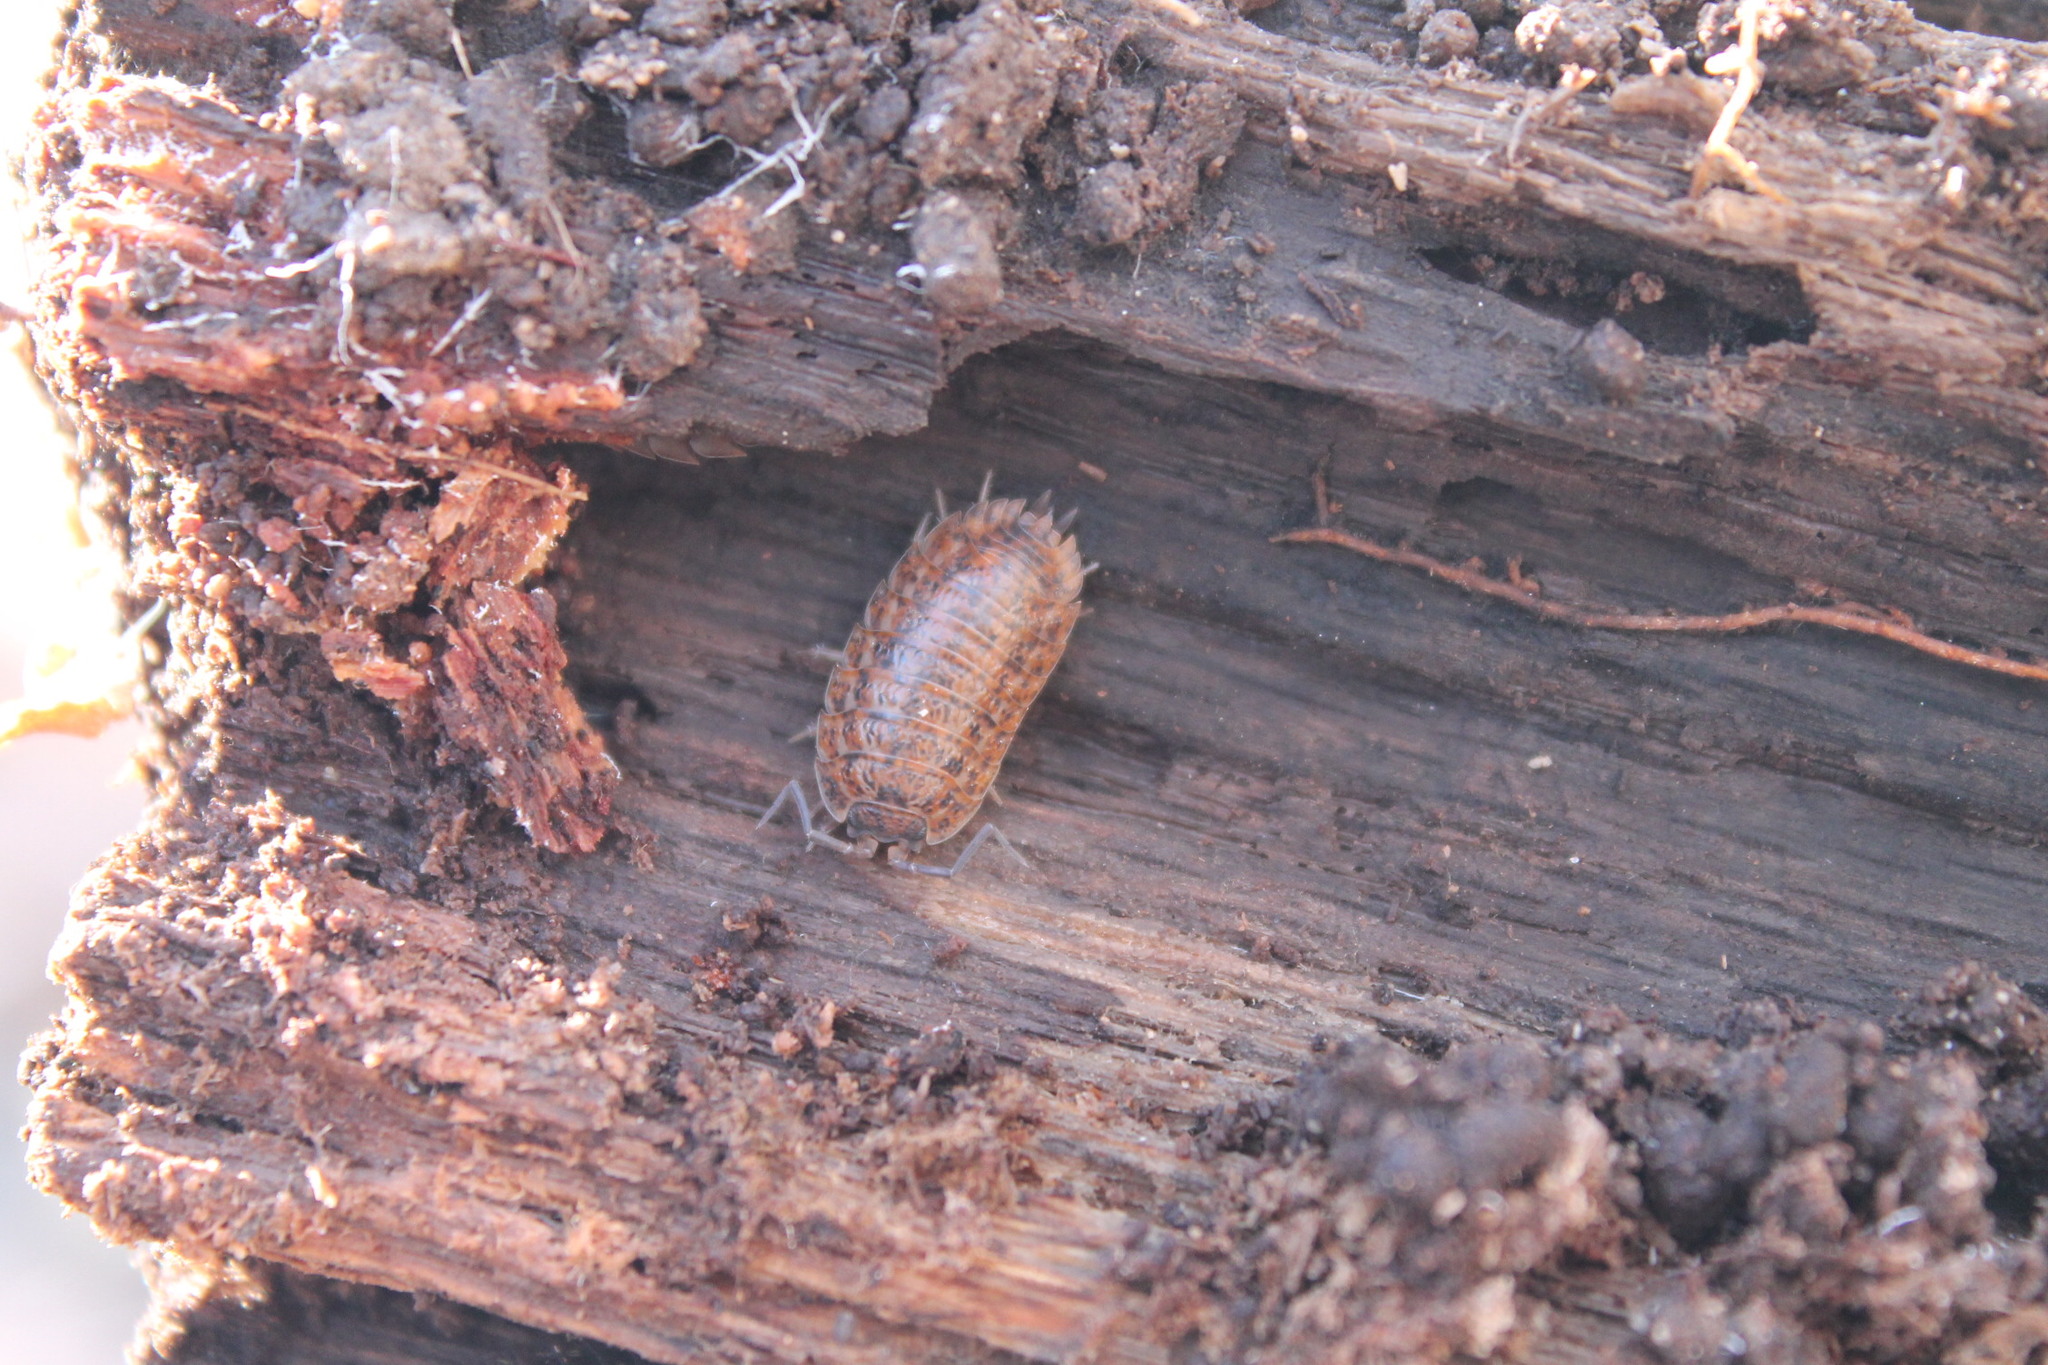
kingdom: Animalia
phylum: Arthropoda
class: Malacostraca
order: Isopoda
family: Trachelipodidae
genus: Trachelipus
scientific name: Trachelipus rathkii
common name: Isopod
